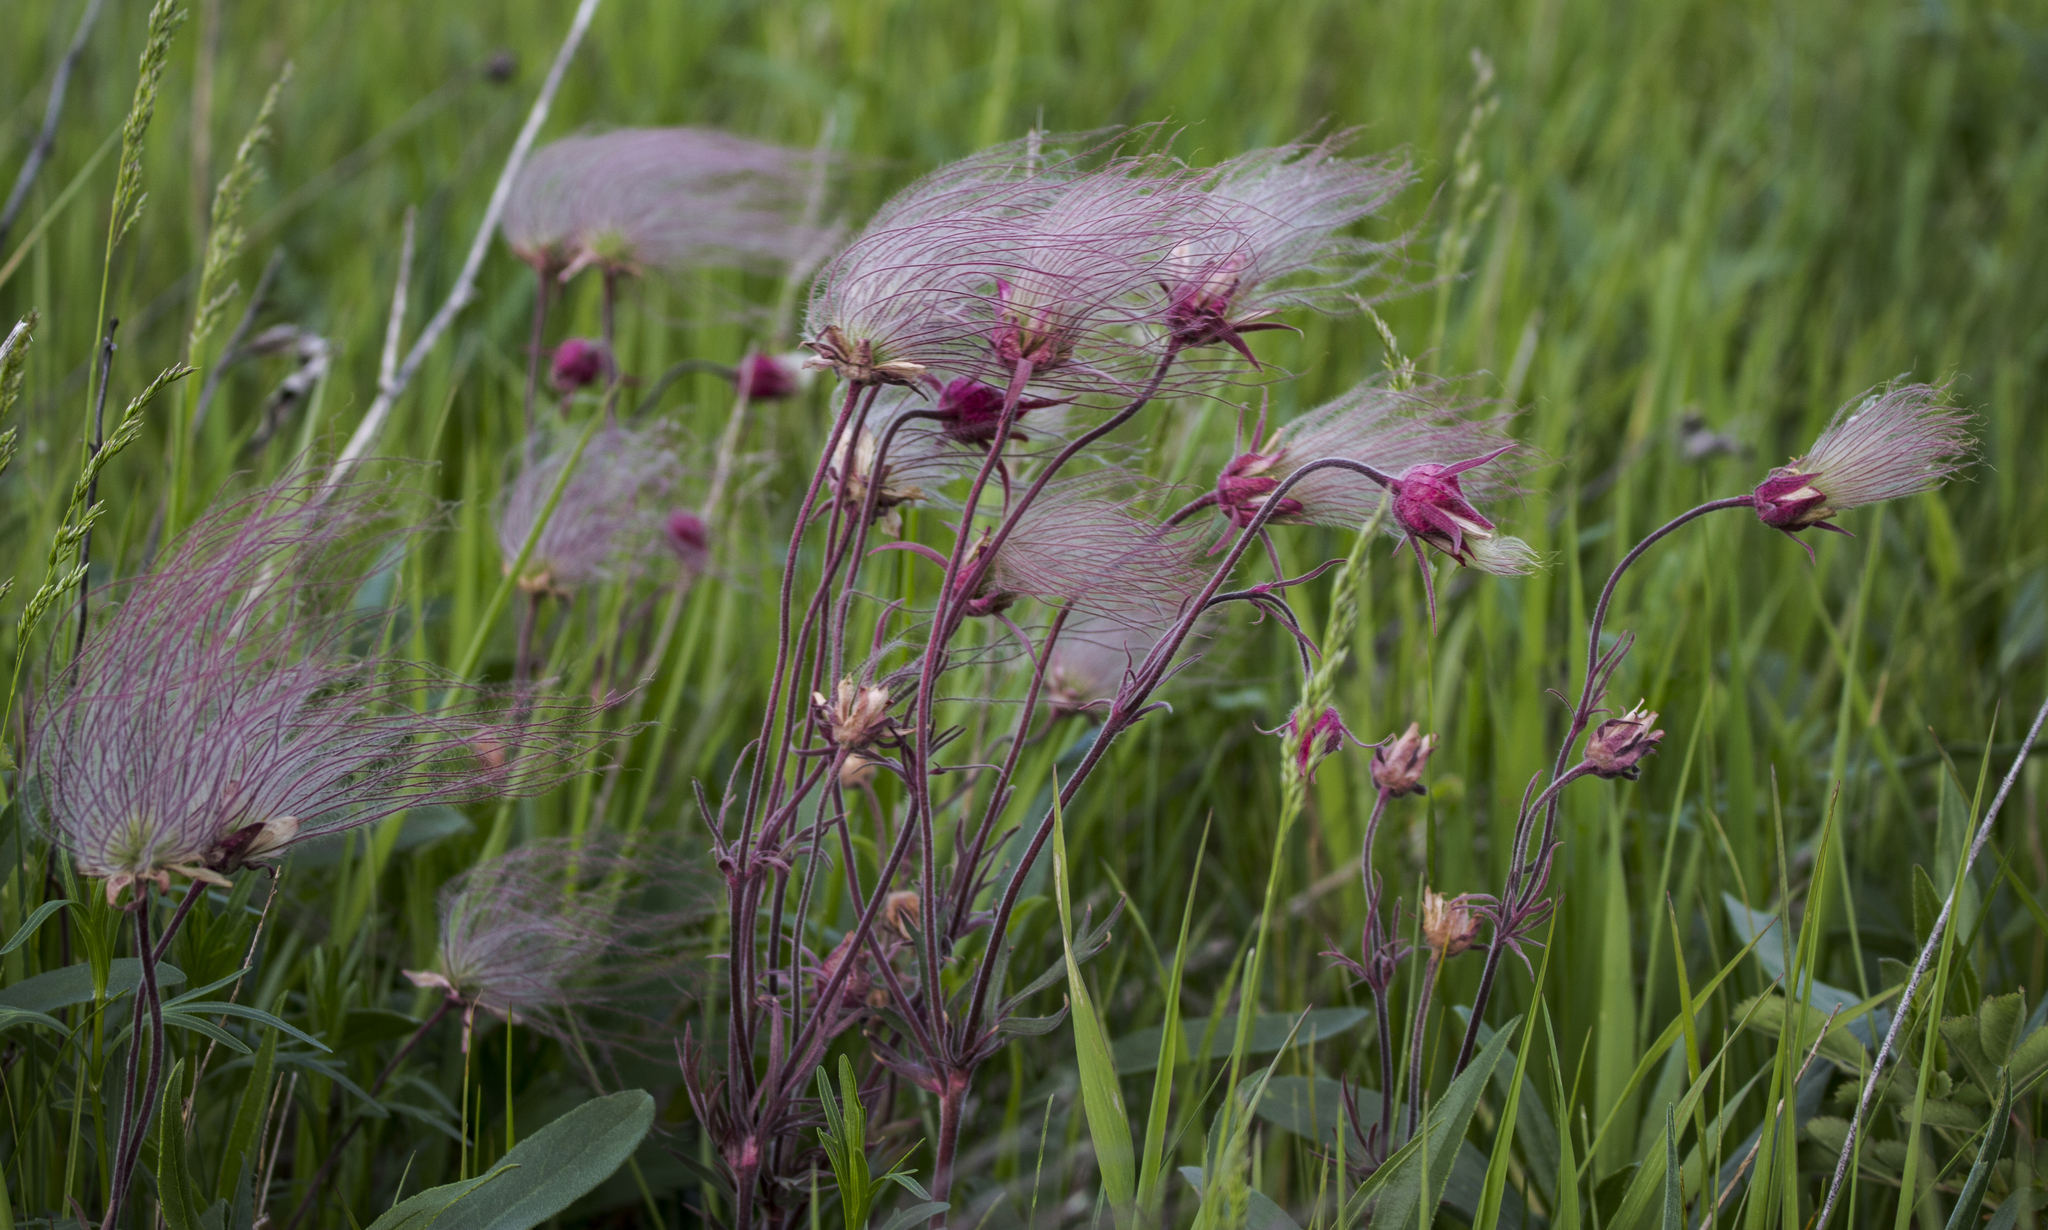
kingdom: Plantae
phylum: Tracheophyta
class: Magnoliopsida
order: Rosales
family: Rosaceae
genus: Geum
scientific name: Geum triflorum
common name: Old man's whiskers
